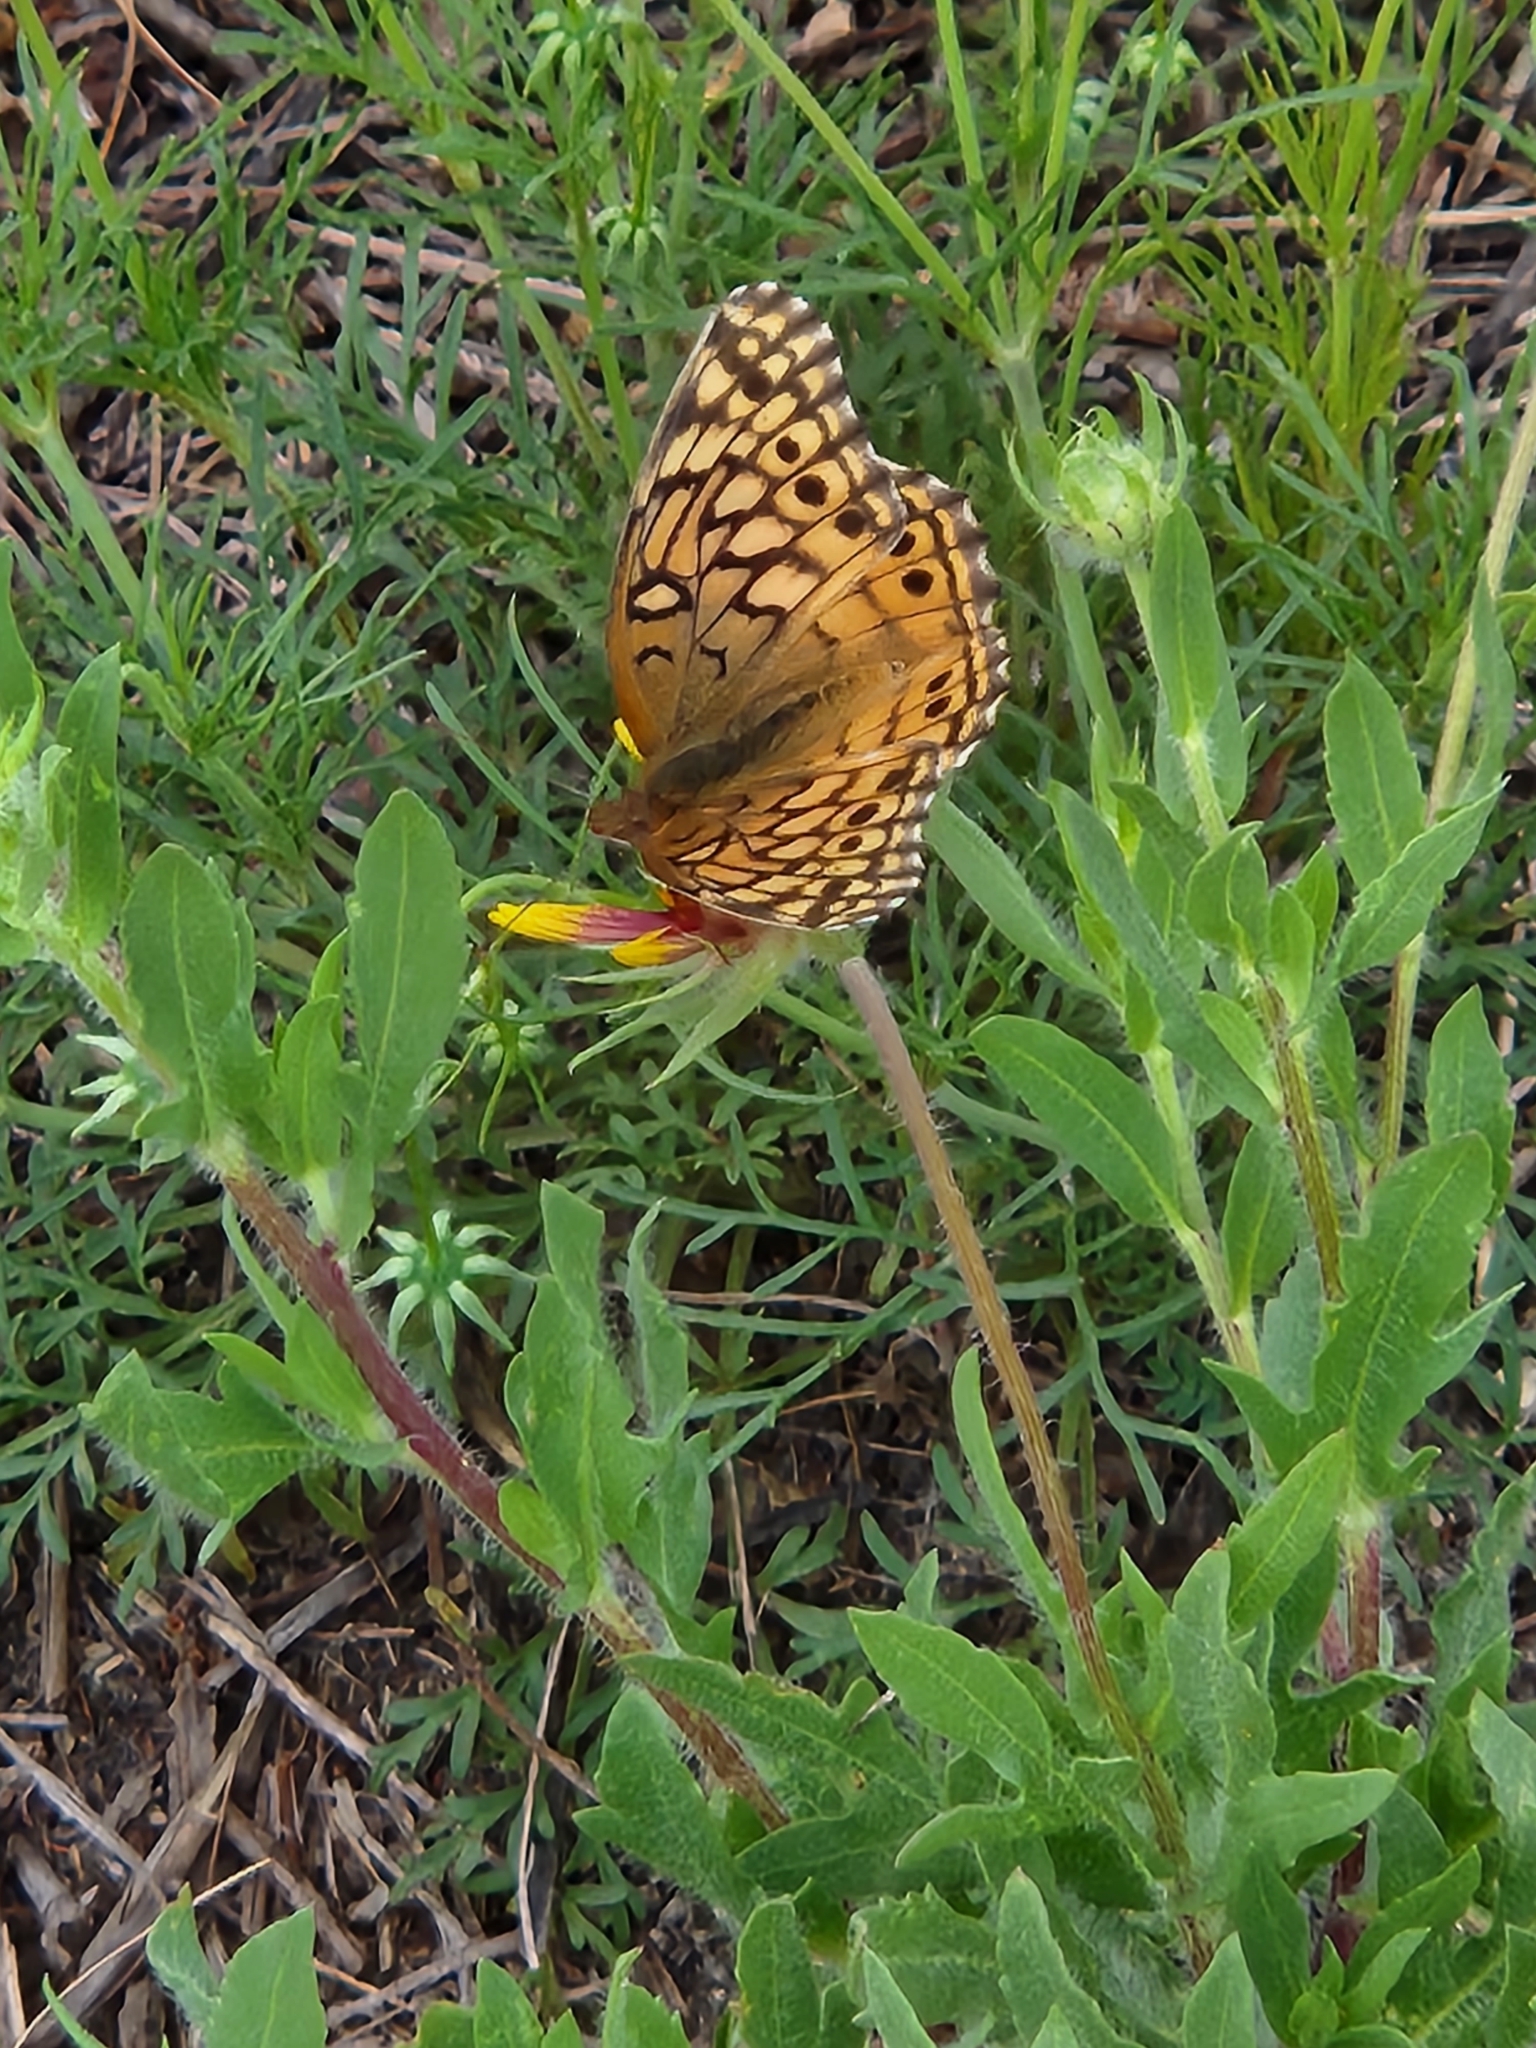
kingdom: Animalia
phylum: Arthropoda
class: Insecta
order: Lepidoptera
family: Nymphalidae
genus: Euptoieta
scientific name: Euptoieta claudia
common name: Variegated fritillary
